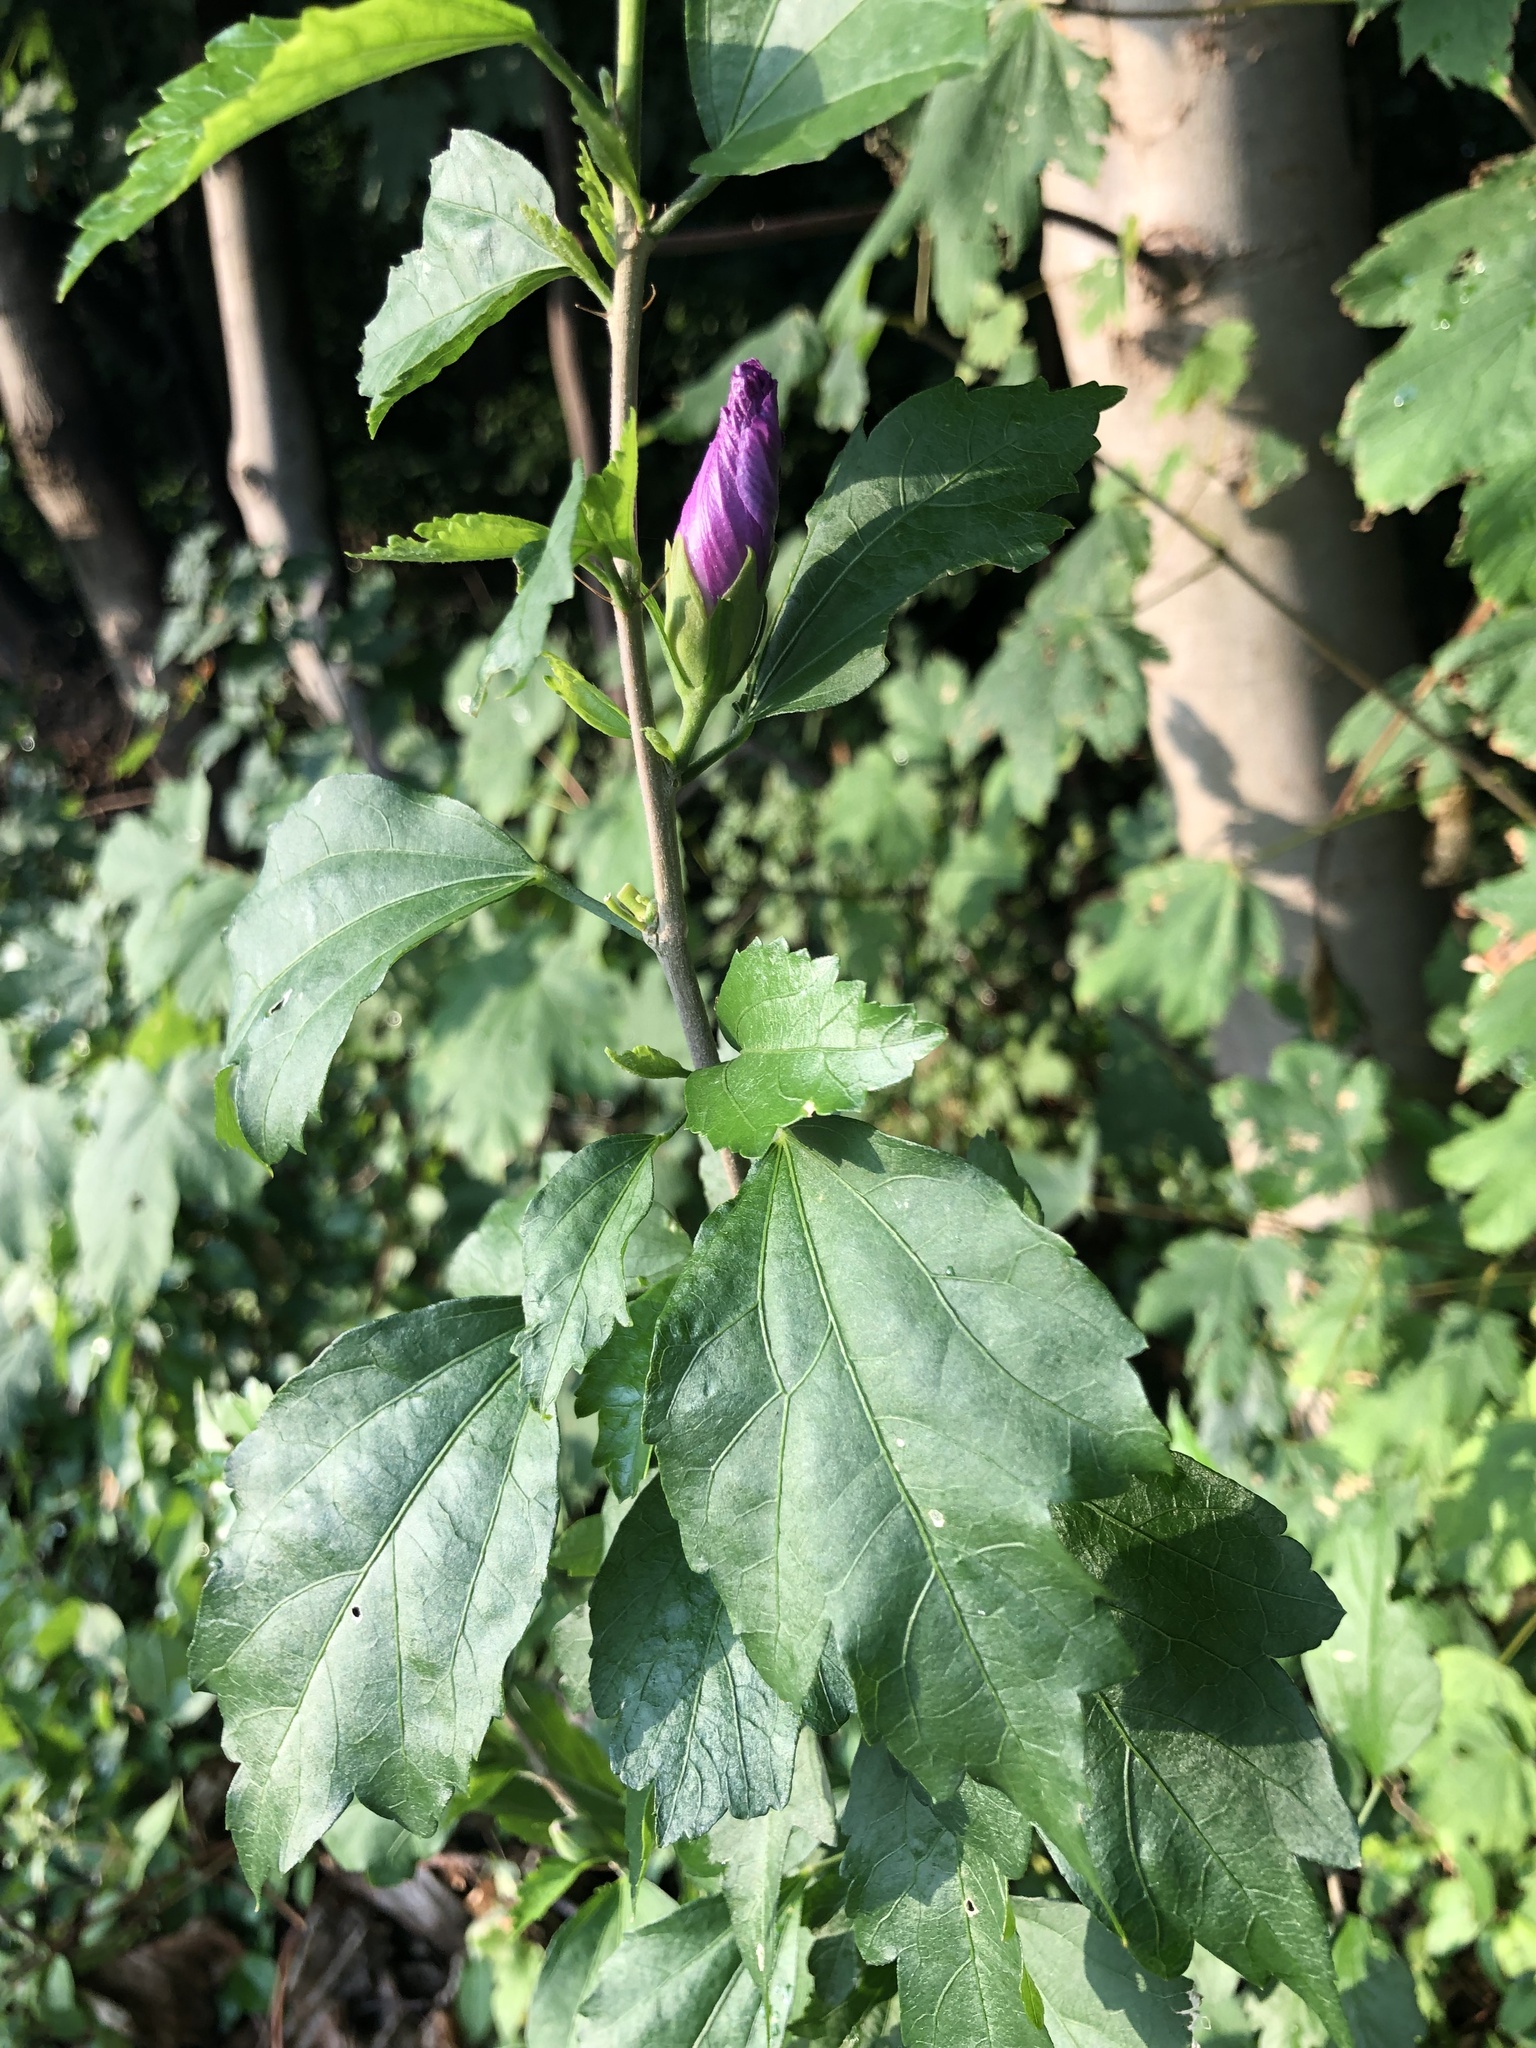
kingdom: Plantae
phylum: Tracheophyta
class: Magnoliopsida
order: Malvales
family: Malvaceae
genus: Hibiscus
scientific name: Hibiscus syriacus
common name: Syrian ketmia
